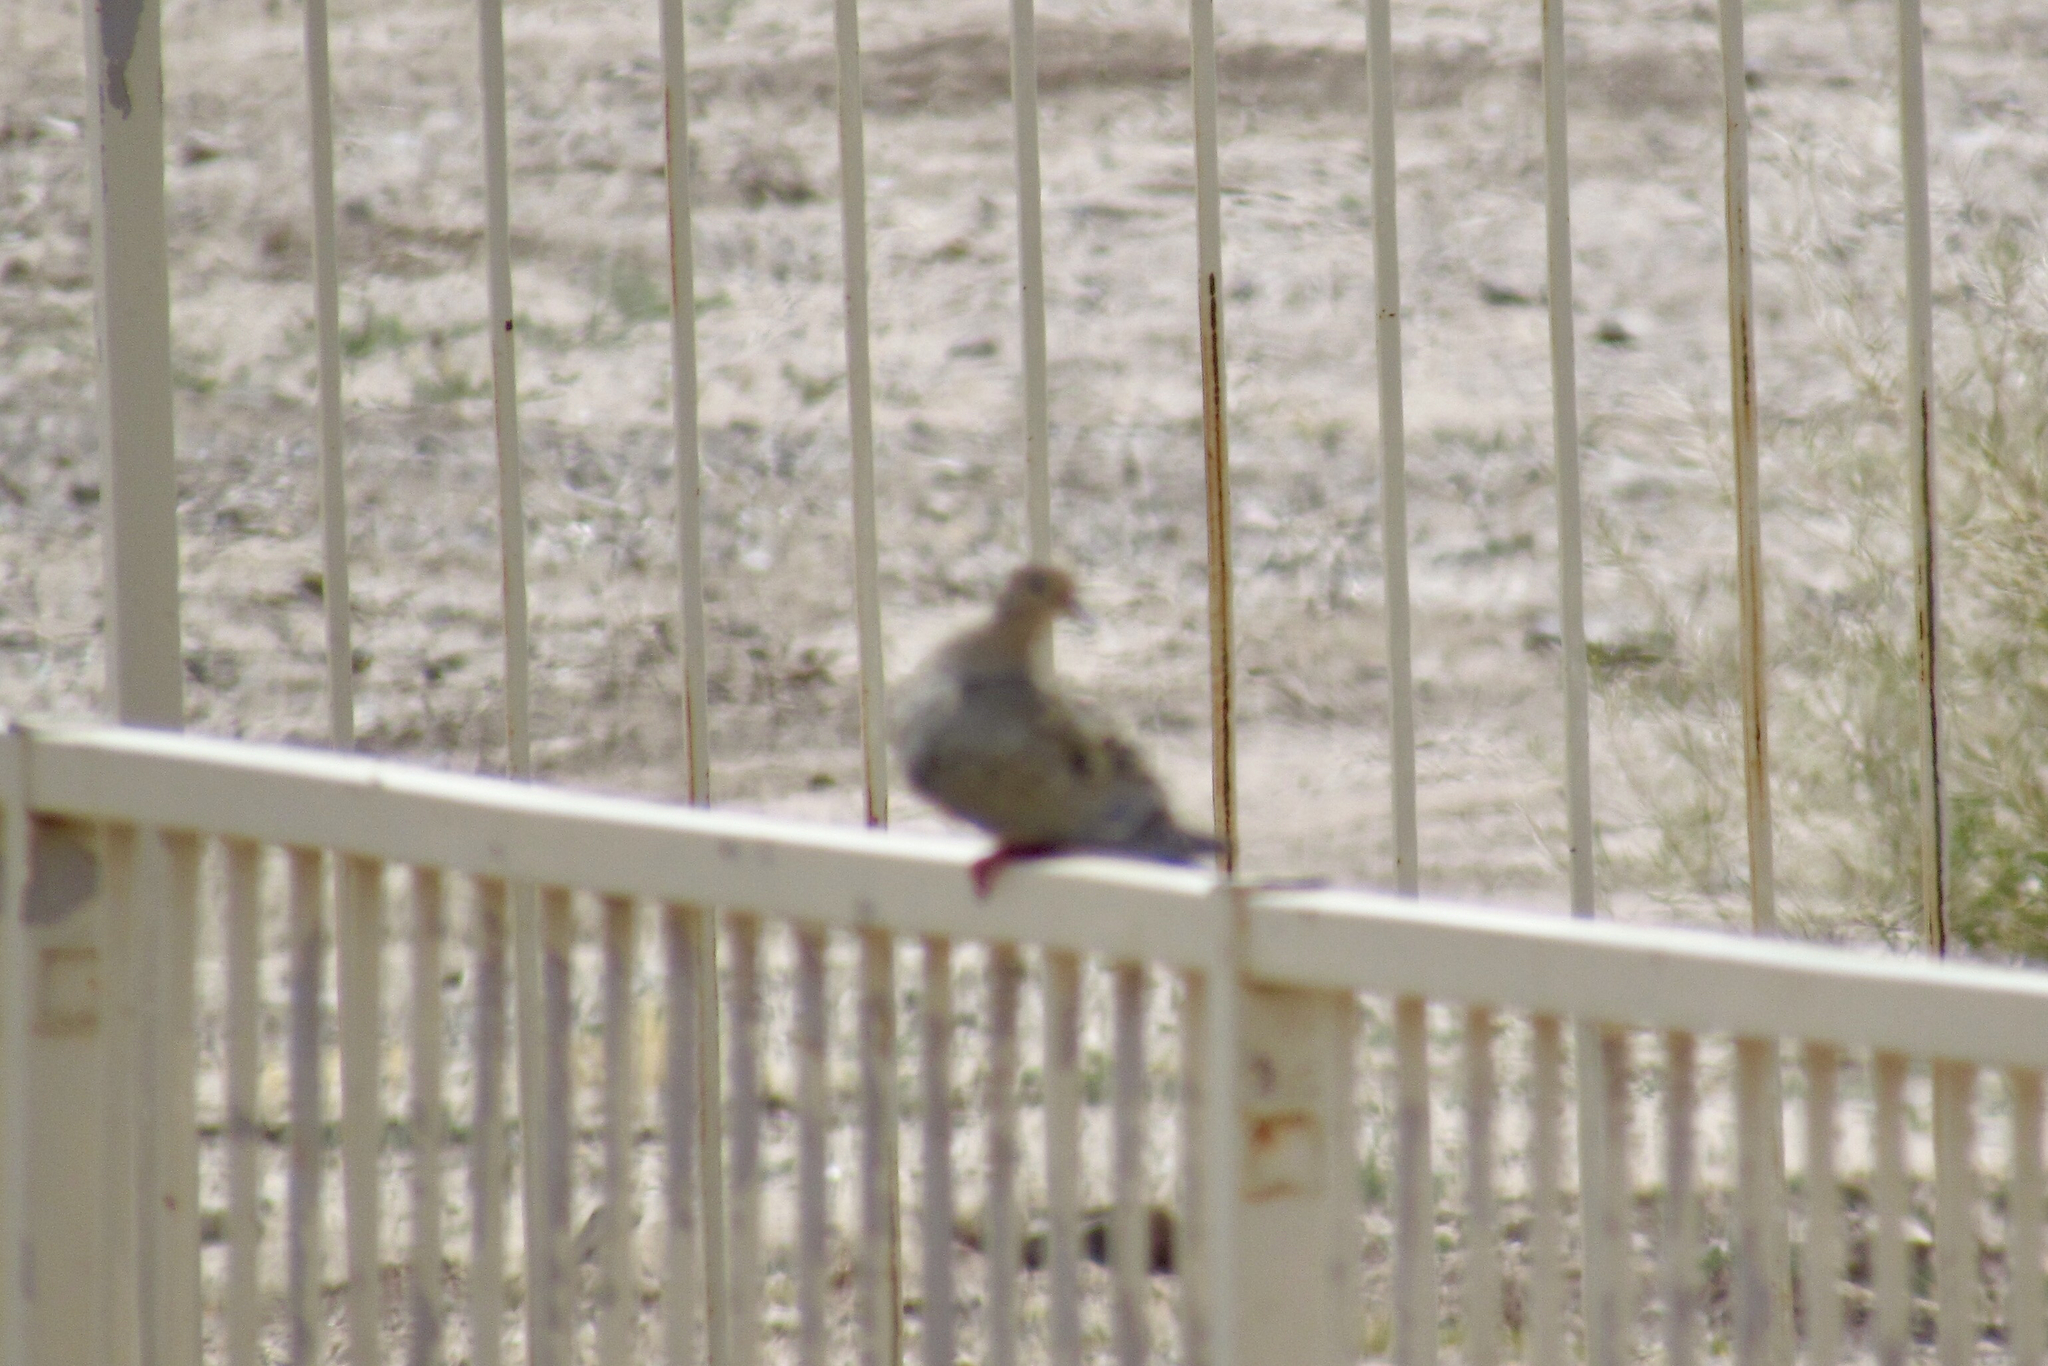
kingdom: Animalia
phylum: Chordata
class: Aves
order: Columbiformes
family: Columbidae
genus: Zenaida
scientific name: Zenaida macroura
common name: Mourning dove
